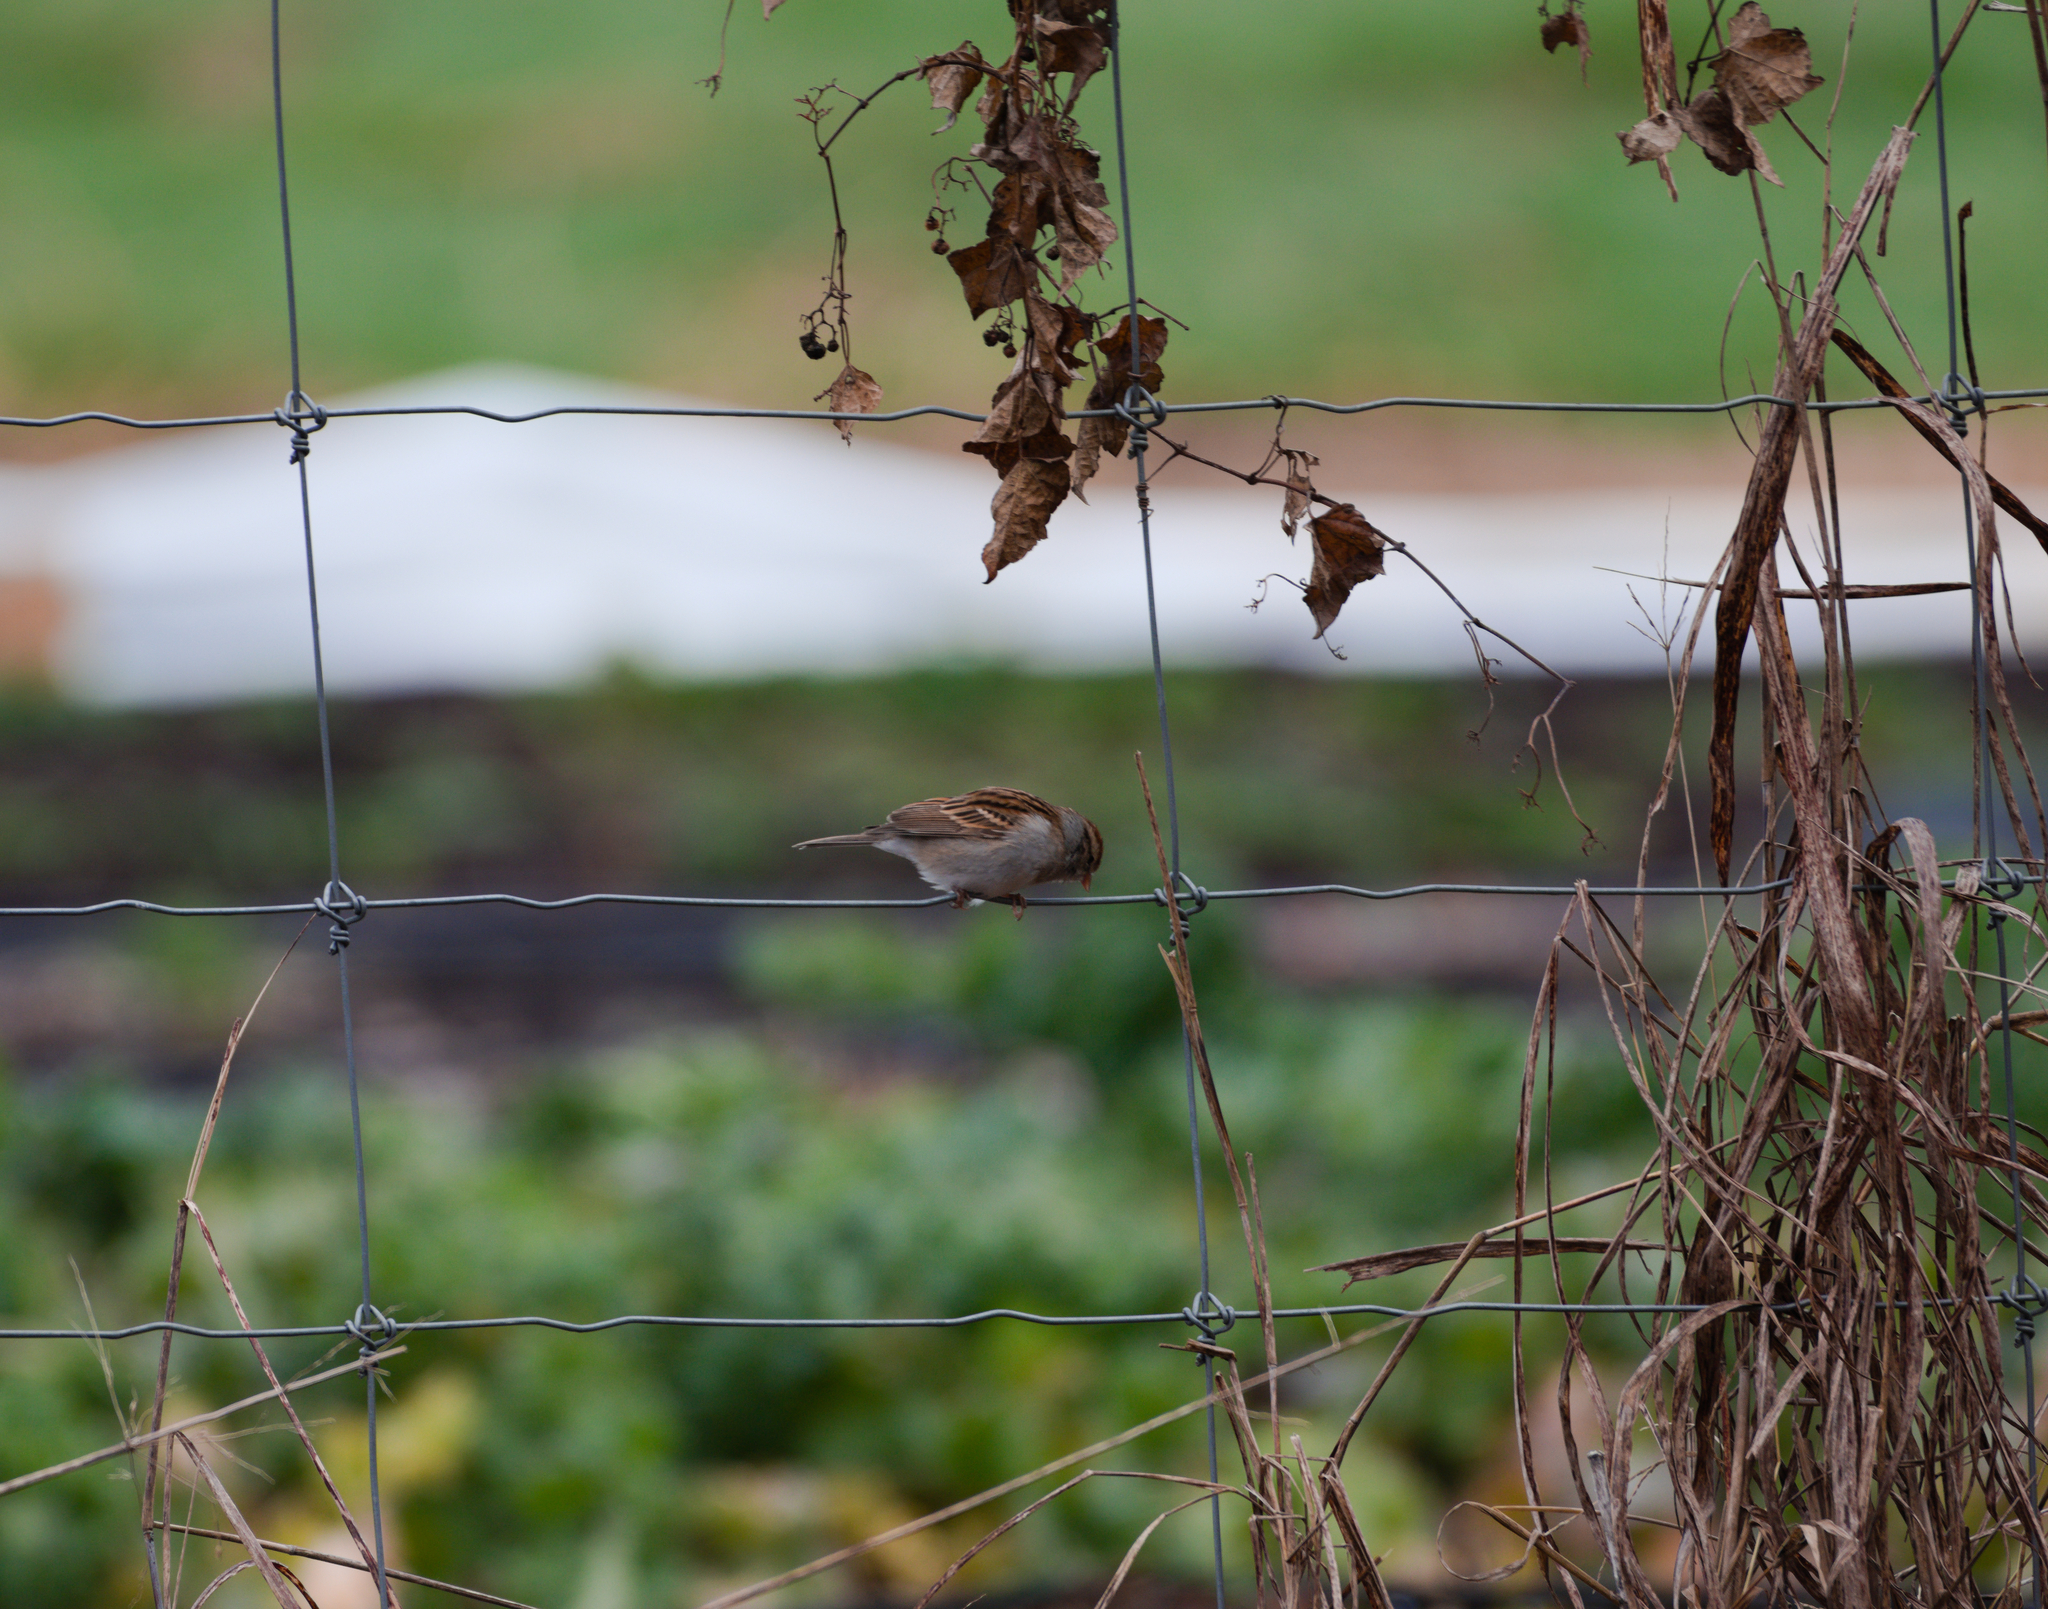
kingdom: Animalia
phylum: Chordata
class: Aves
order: Passeriformes
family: Passerellidae
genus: Spizella
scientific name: Spizella passerina
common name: Chipping sparrow
